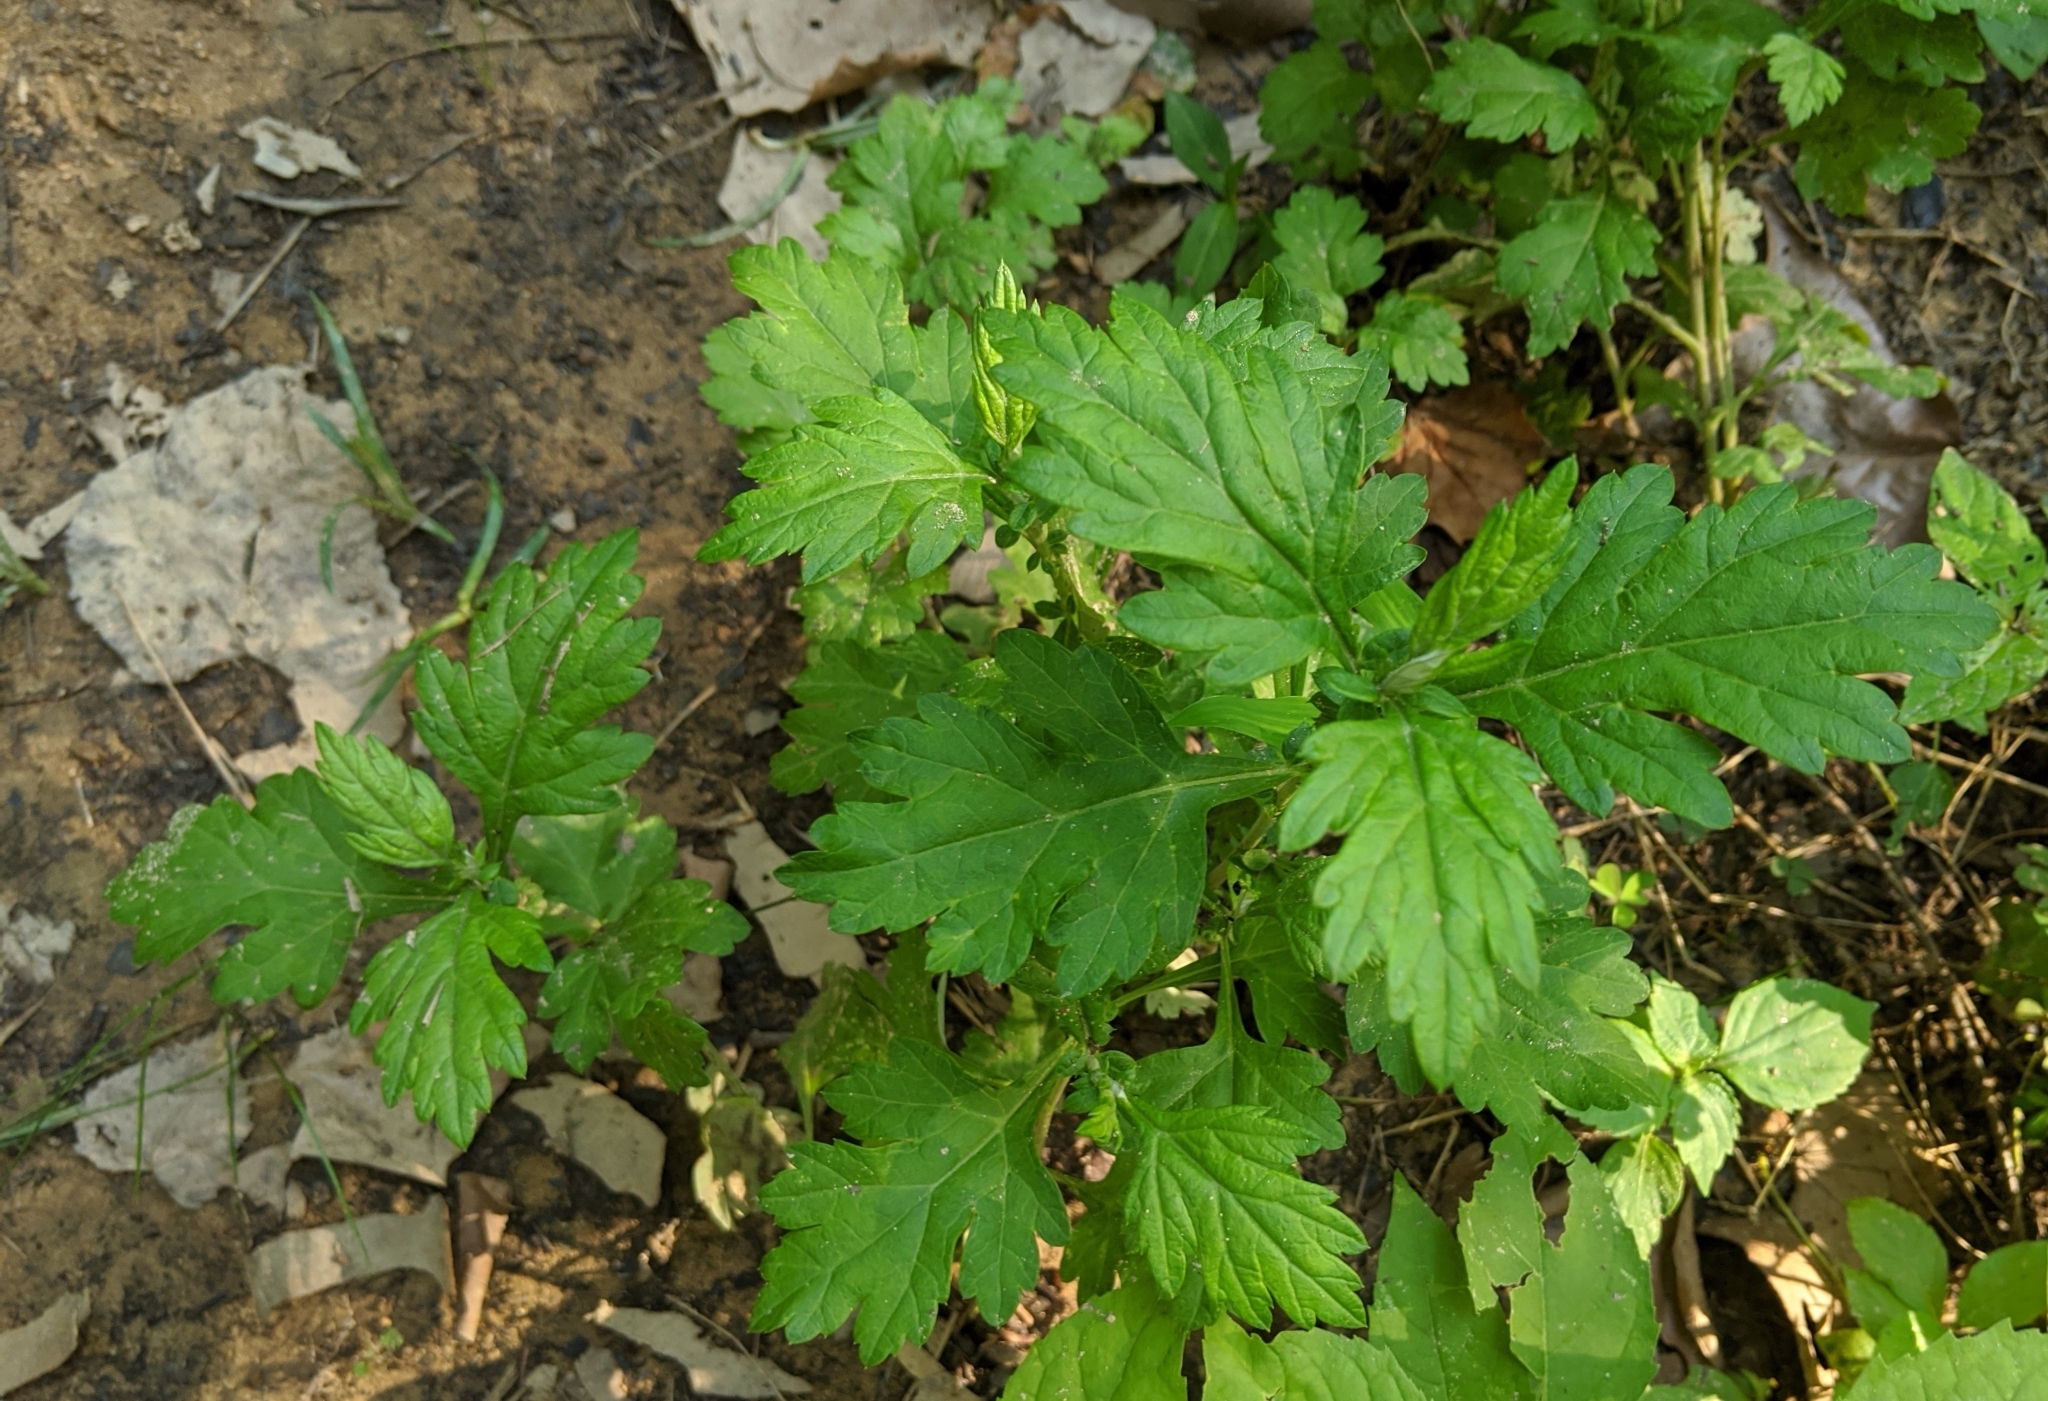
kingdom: Plantae
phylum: Tracheophyta
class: Magnoliopsida
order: Asterales
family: Asteraceae
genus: Artemisia
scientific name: Artemisia vulgaris
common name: Mugwort
